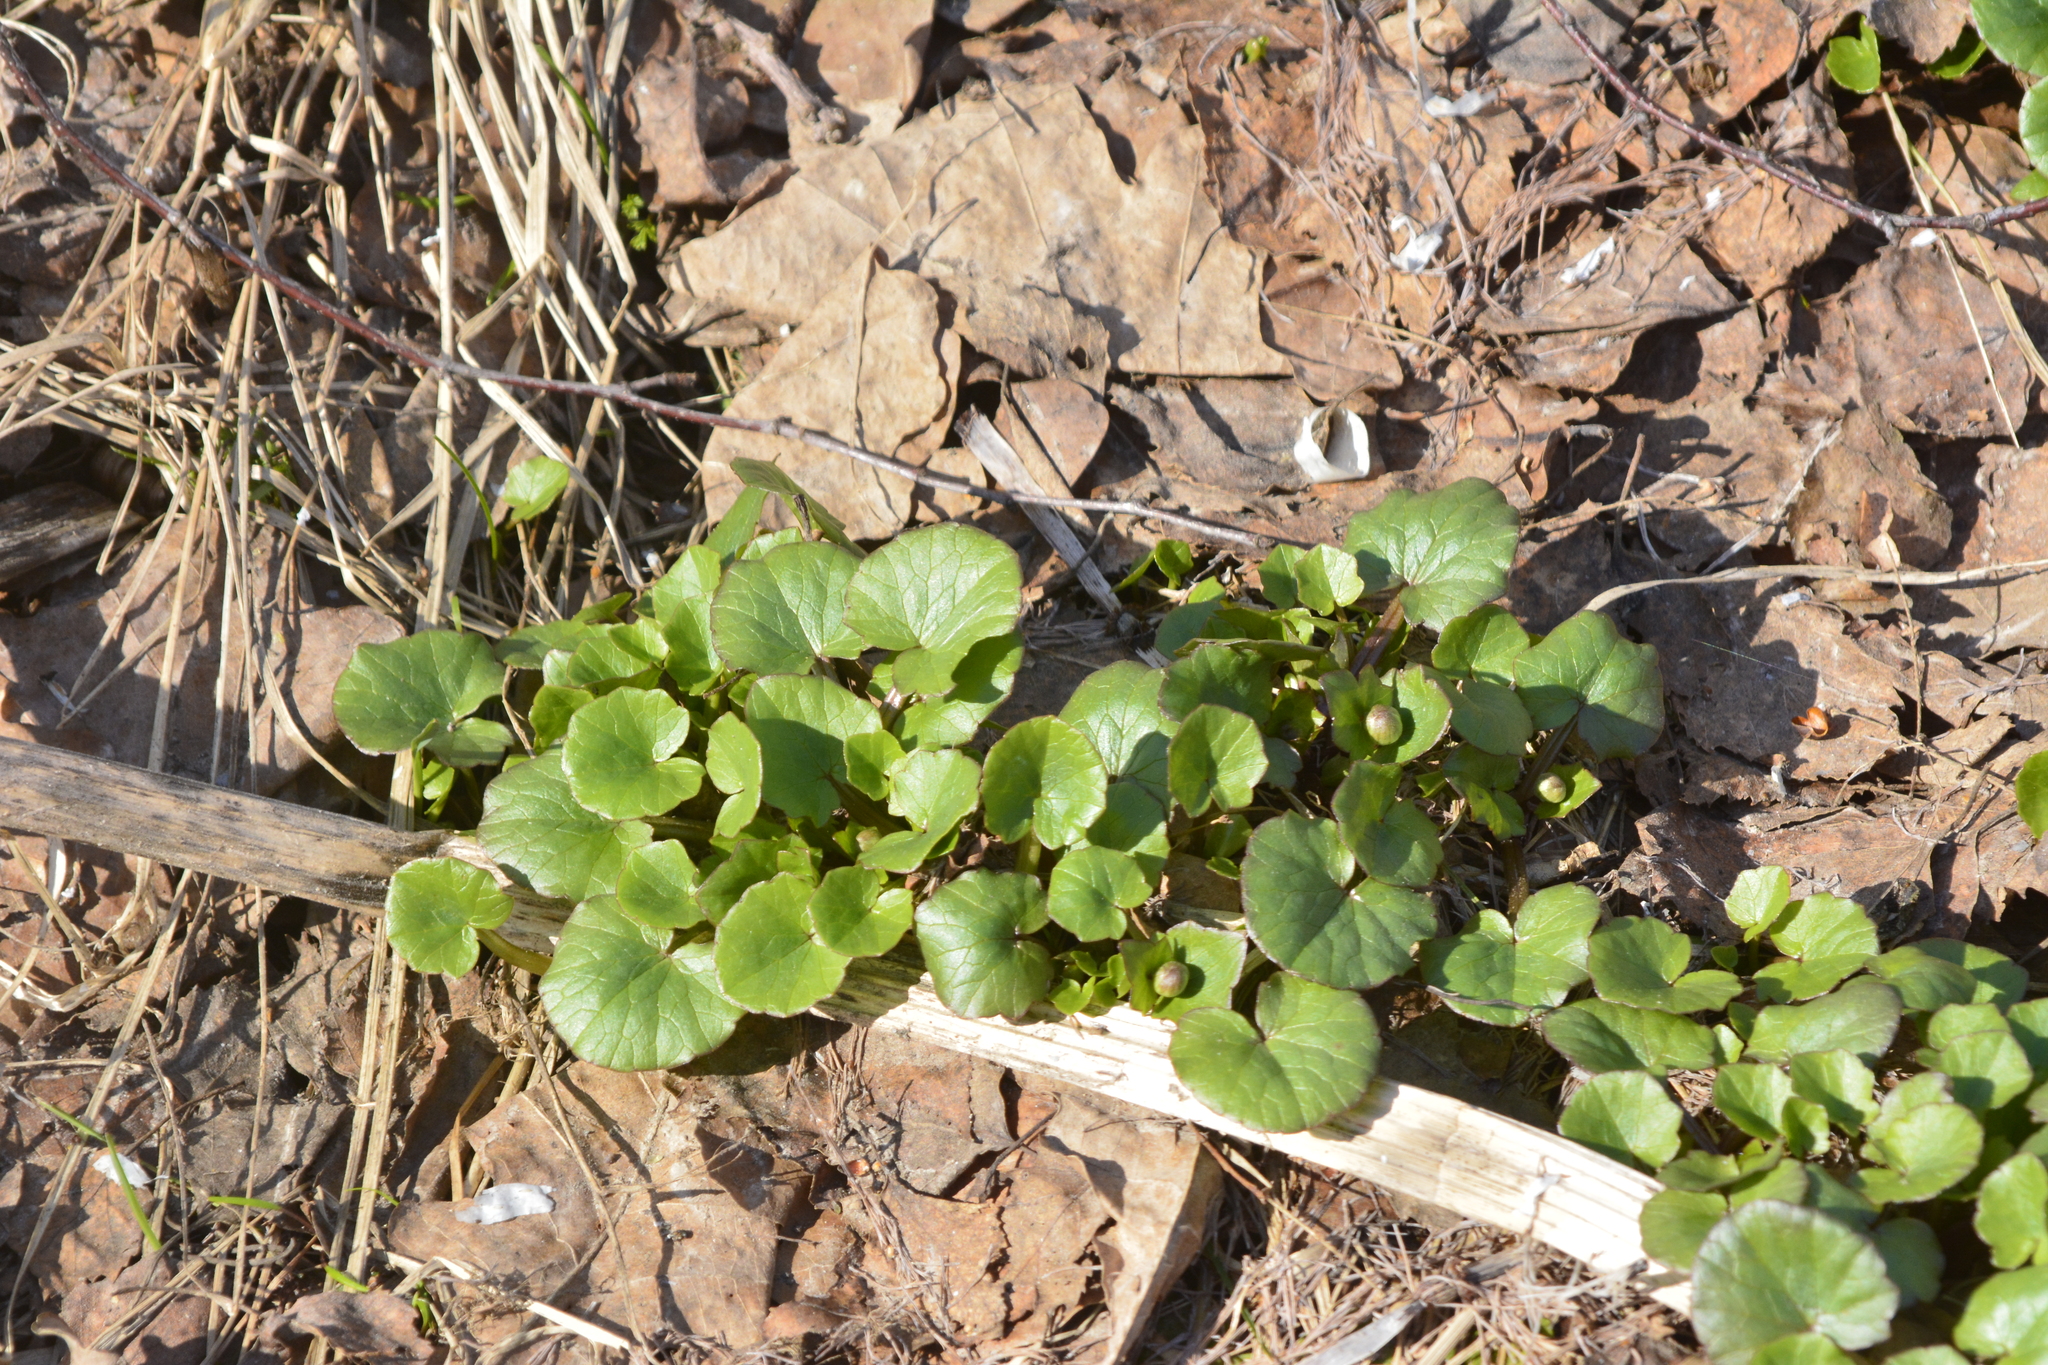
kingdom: Plantae
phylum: Tracheophyta
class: Magnoliopsida
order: Ranunculales
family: Ranunculaceae
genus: Ficaria
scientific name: Ficaria verna
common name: Lesser celandine
